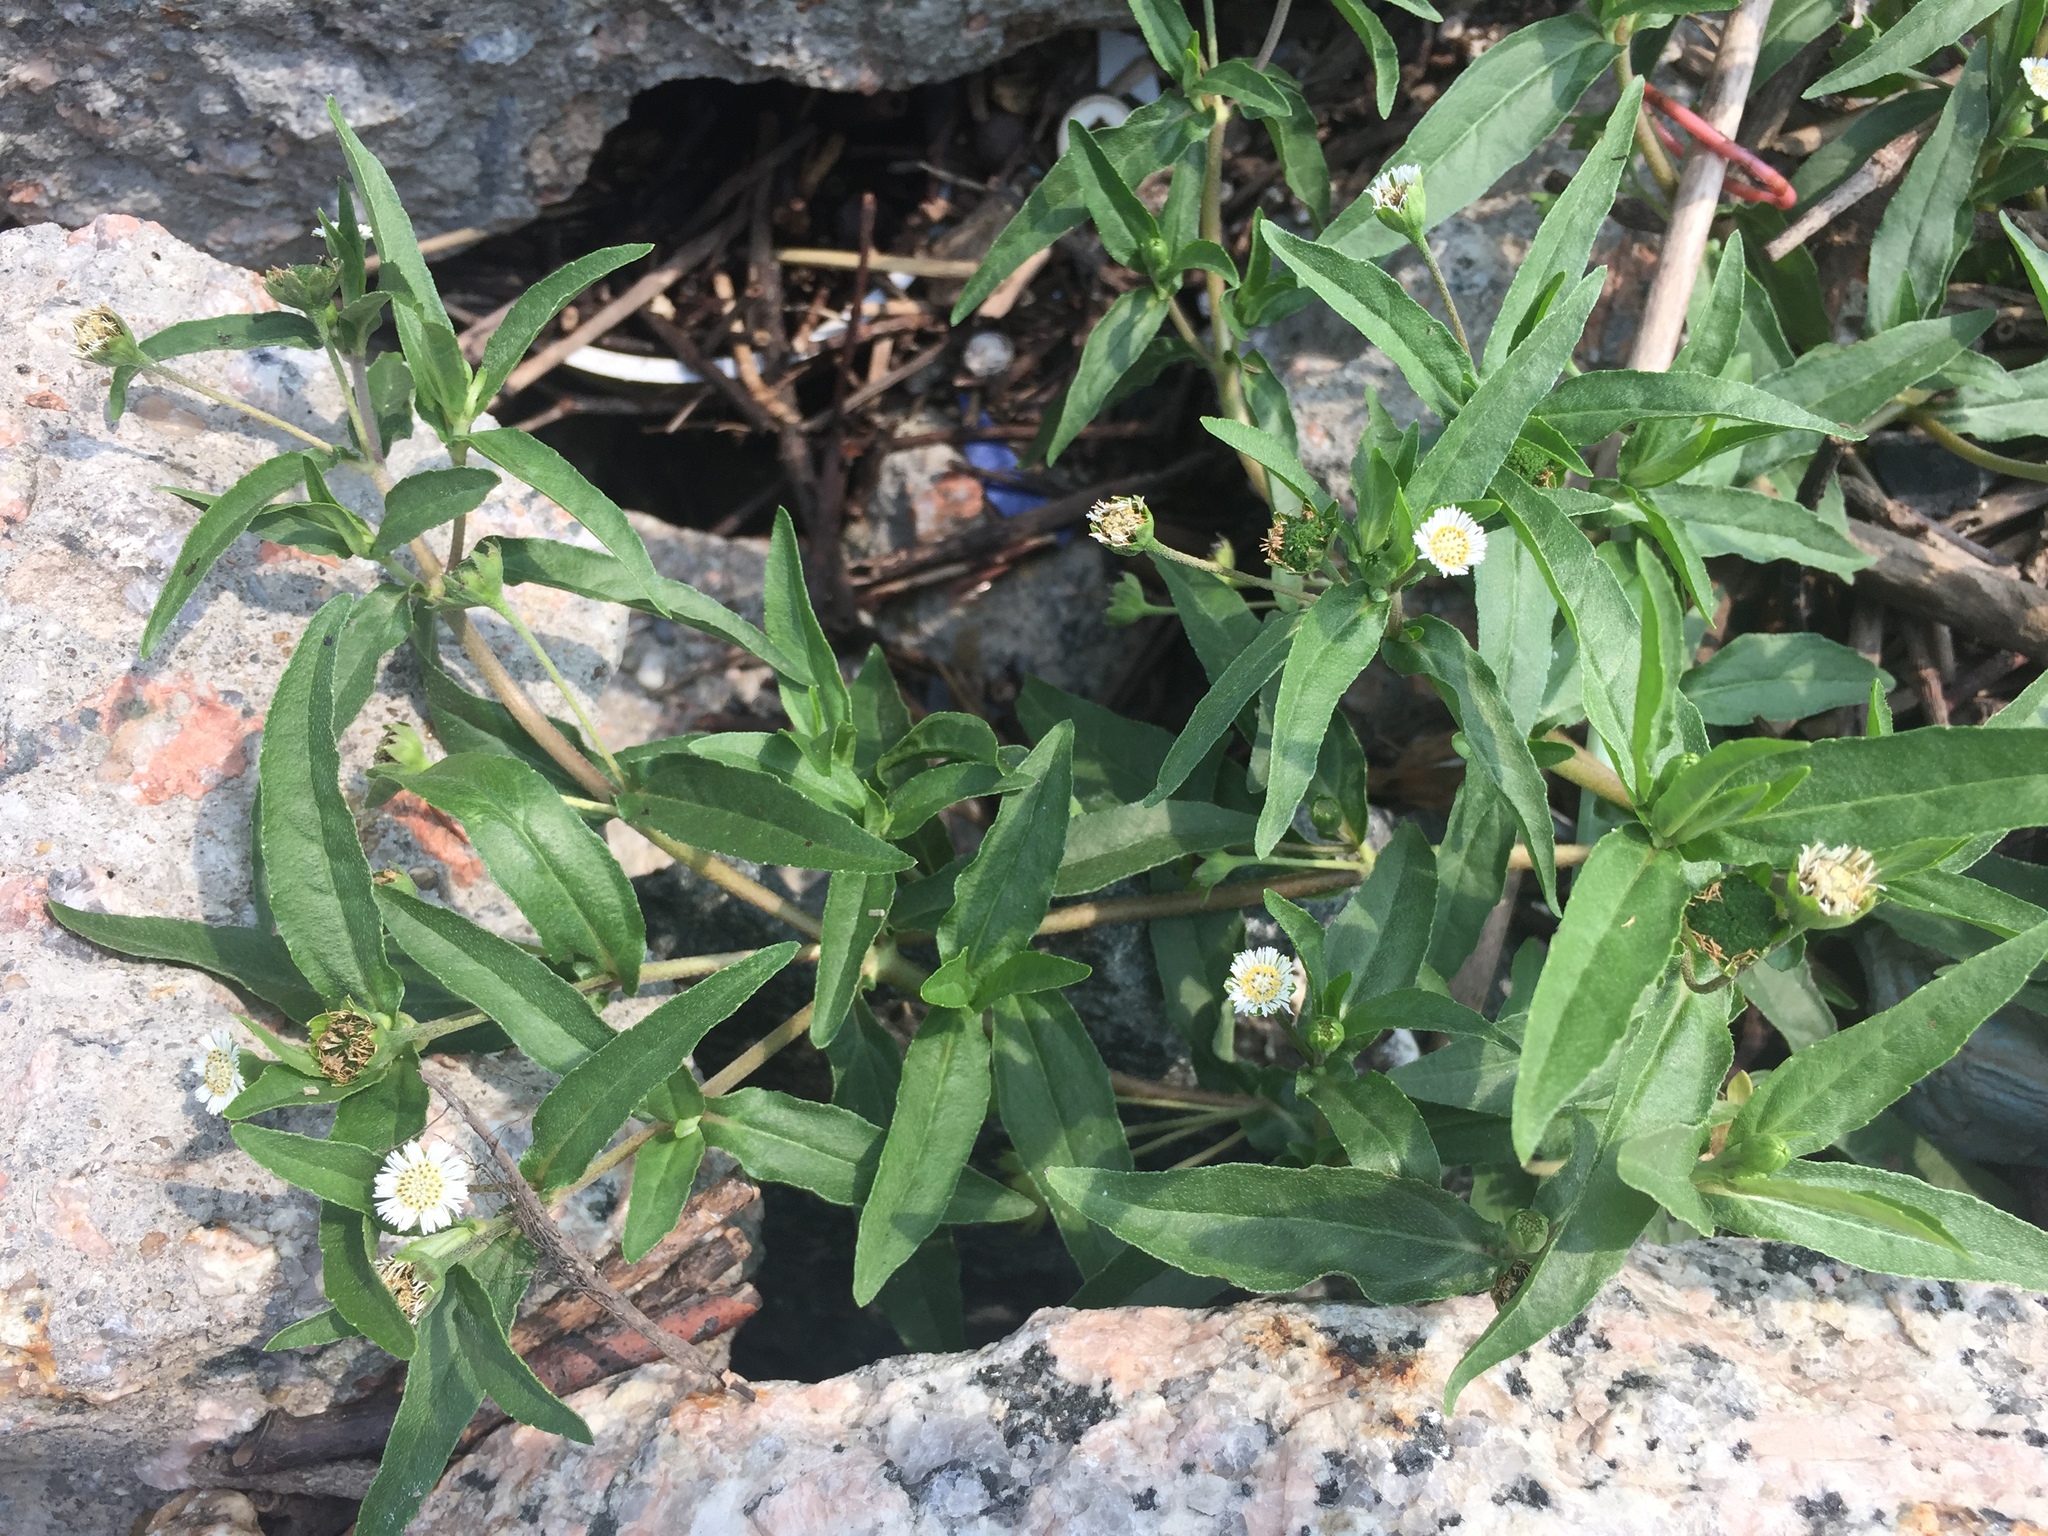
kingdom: Plantae
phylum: Tracheophyta
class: Magnoliopsida
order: Asterales
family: Asteraceae
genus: Eclipta
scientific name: Eclipta prostrata
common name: False daisy
